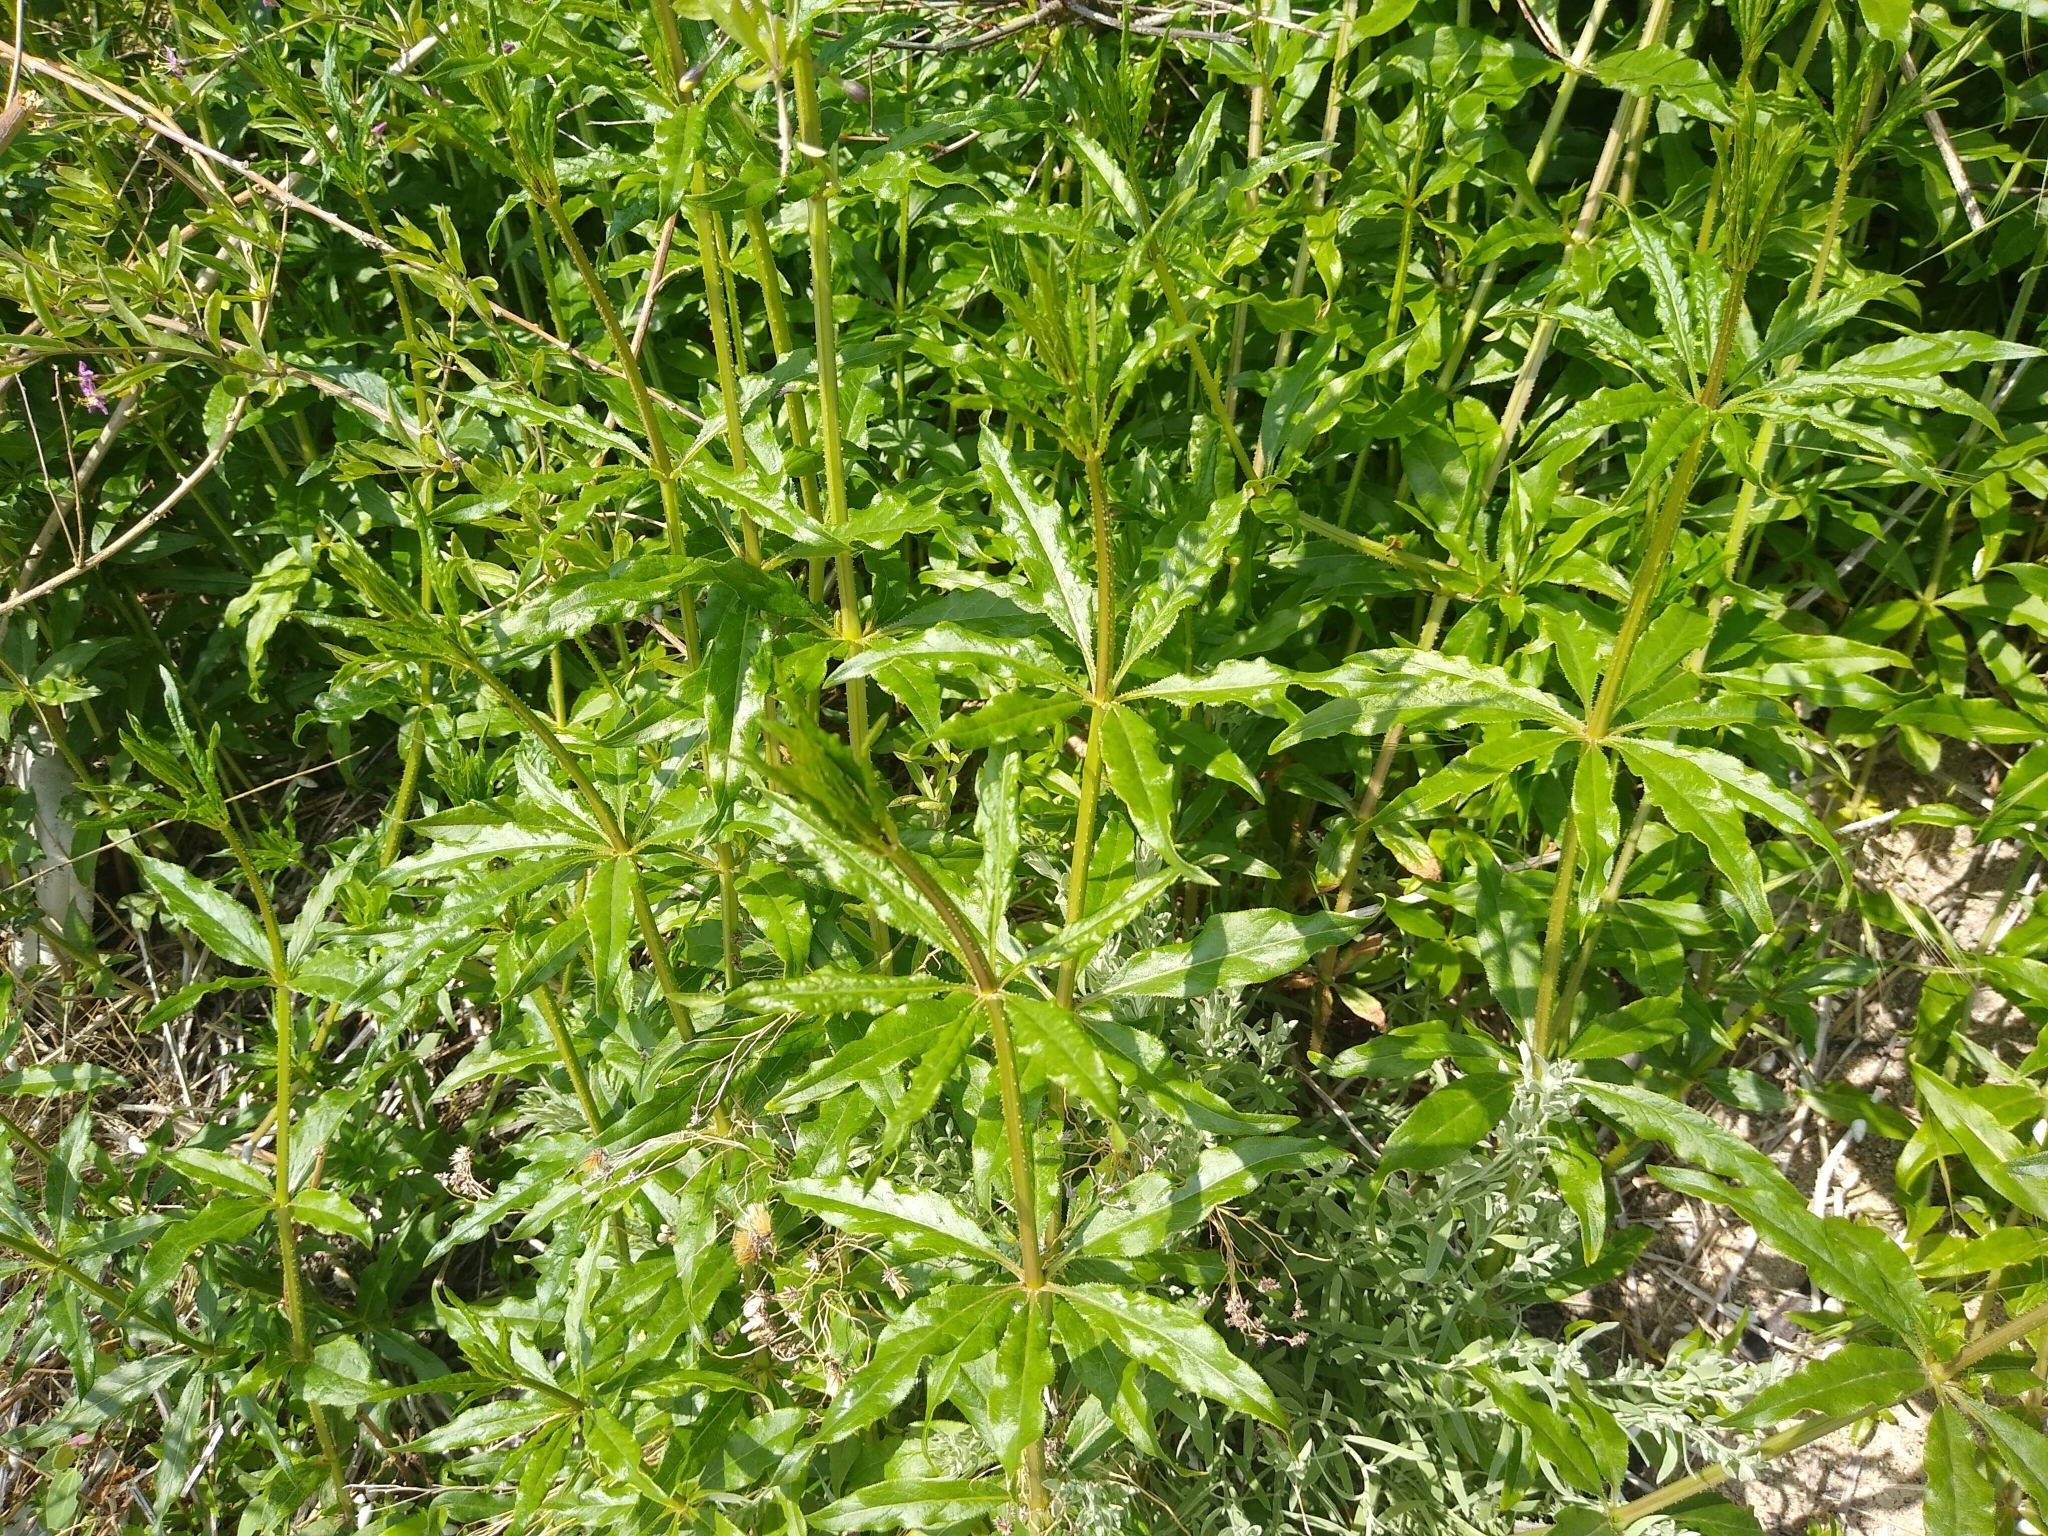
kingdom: Plantae
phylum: Tracheophyta
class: Magnoliopsida
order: Gentianales
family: Rubiaceae
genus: Rubia
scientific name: Rubia tinctorum
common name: Dyer's madder
